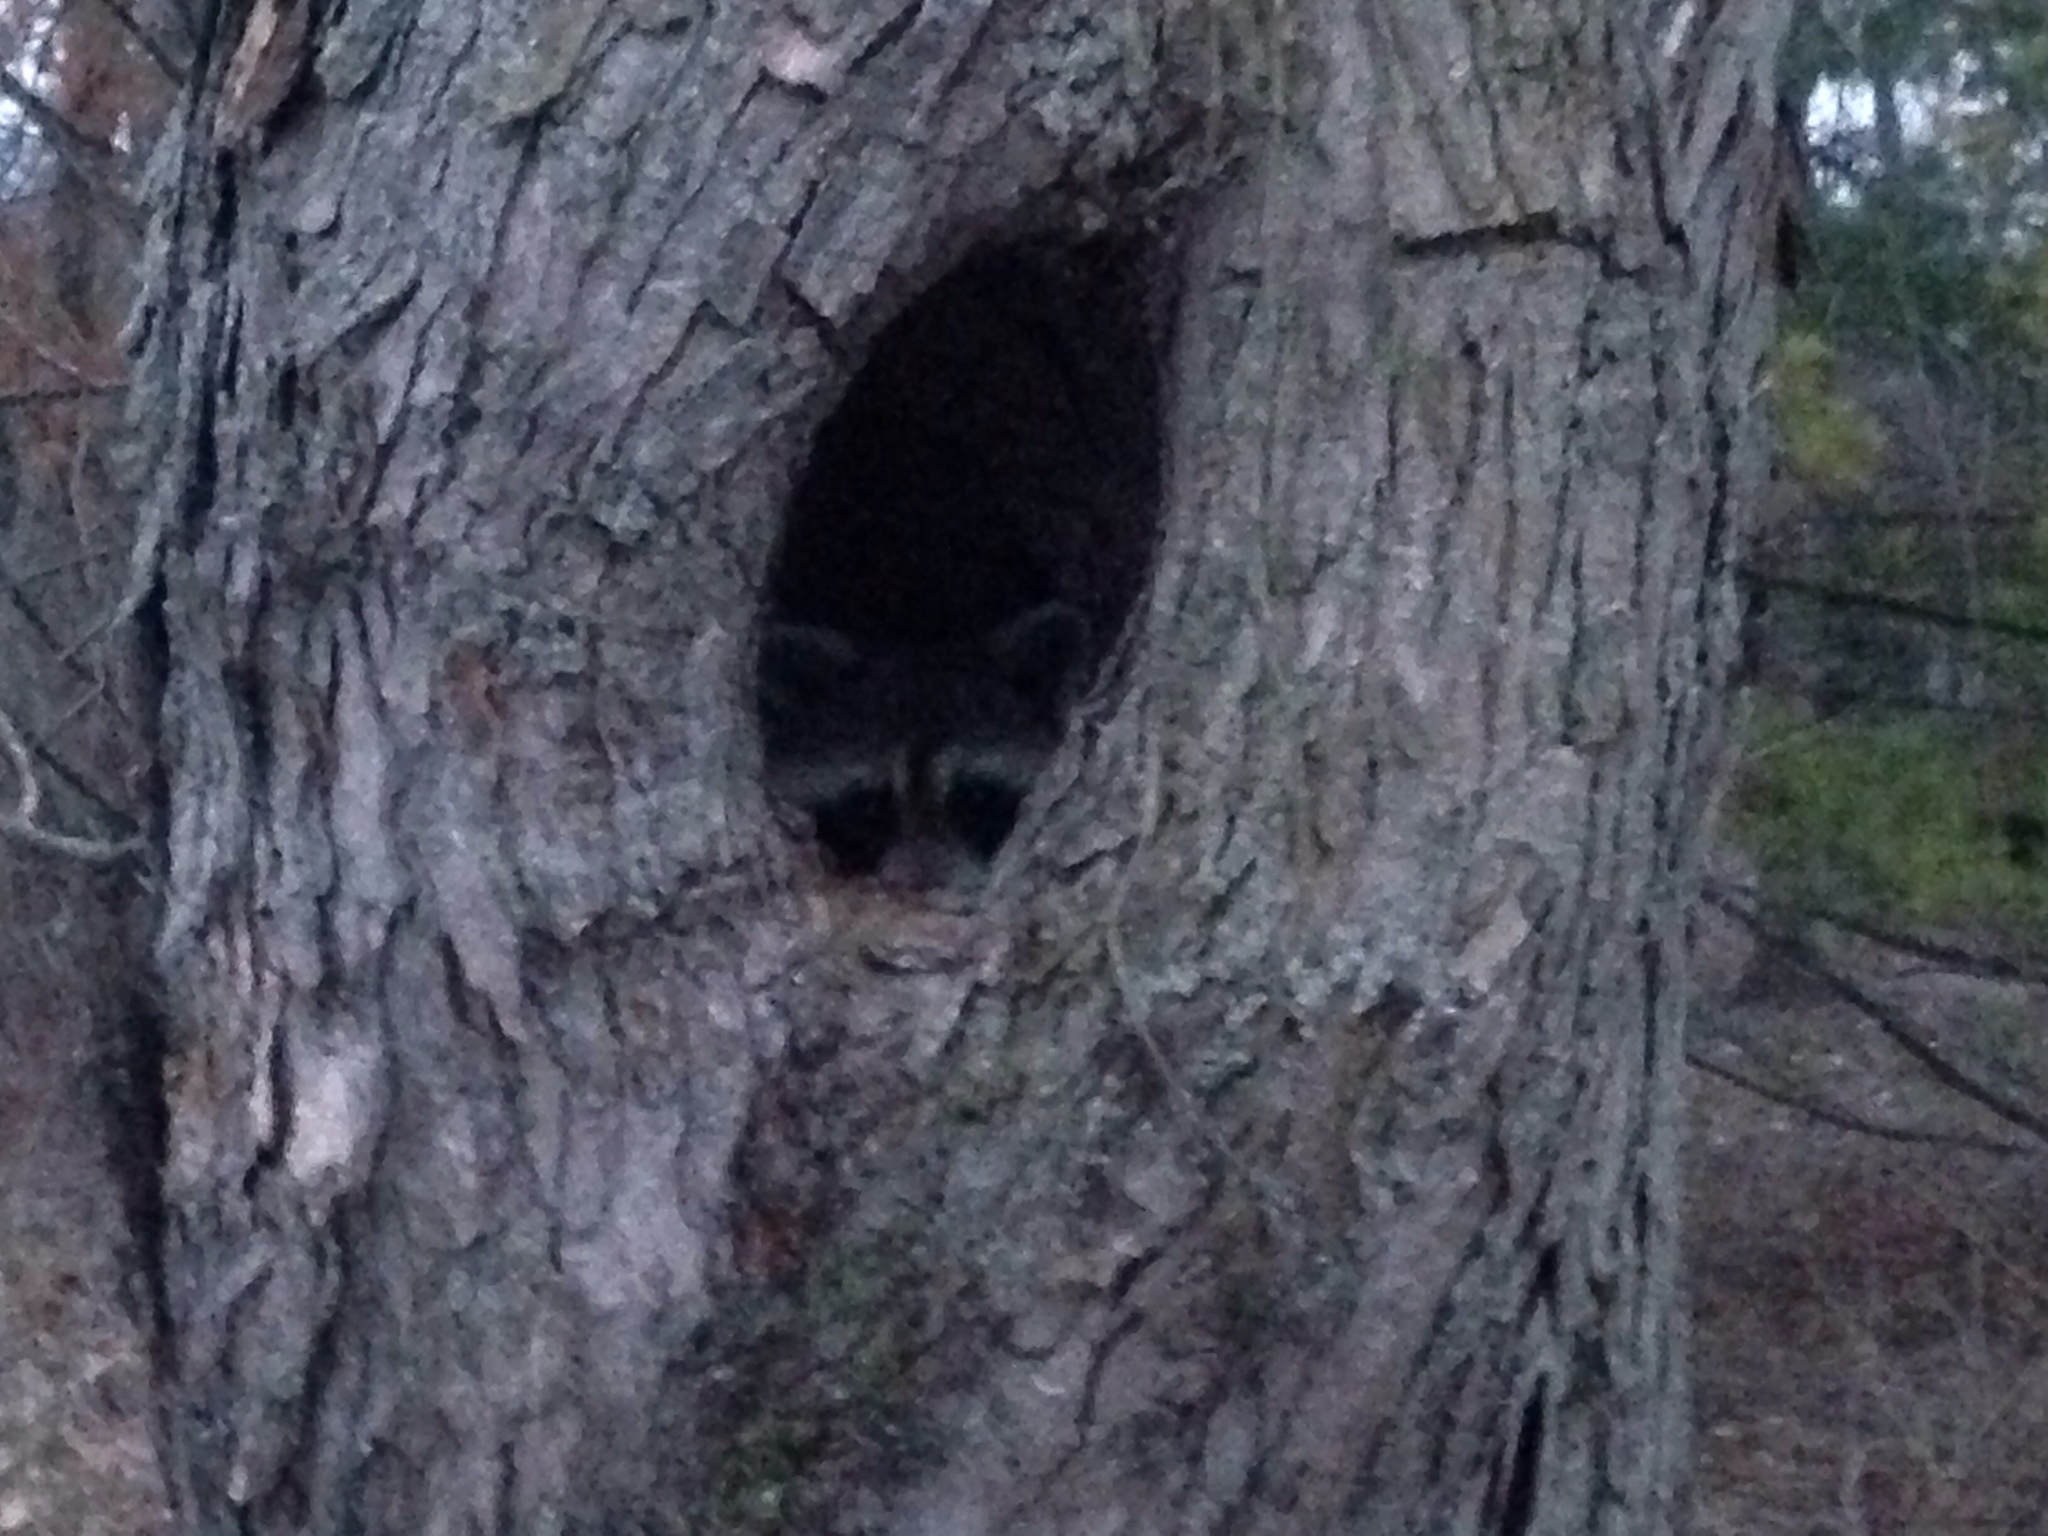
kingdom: Animalia
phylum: Chordata
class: Mammalia
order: Carnivora
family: Procyonidae
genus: Procyon
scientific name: Procyon lotor
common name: Raccoon
